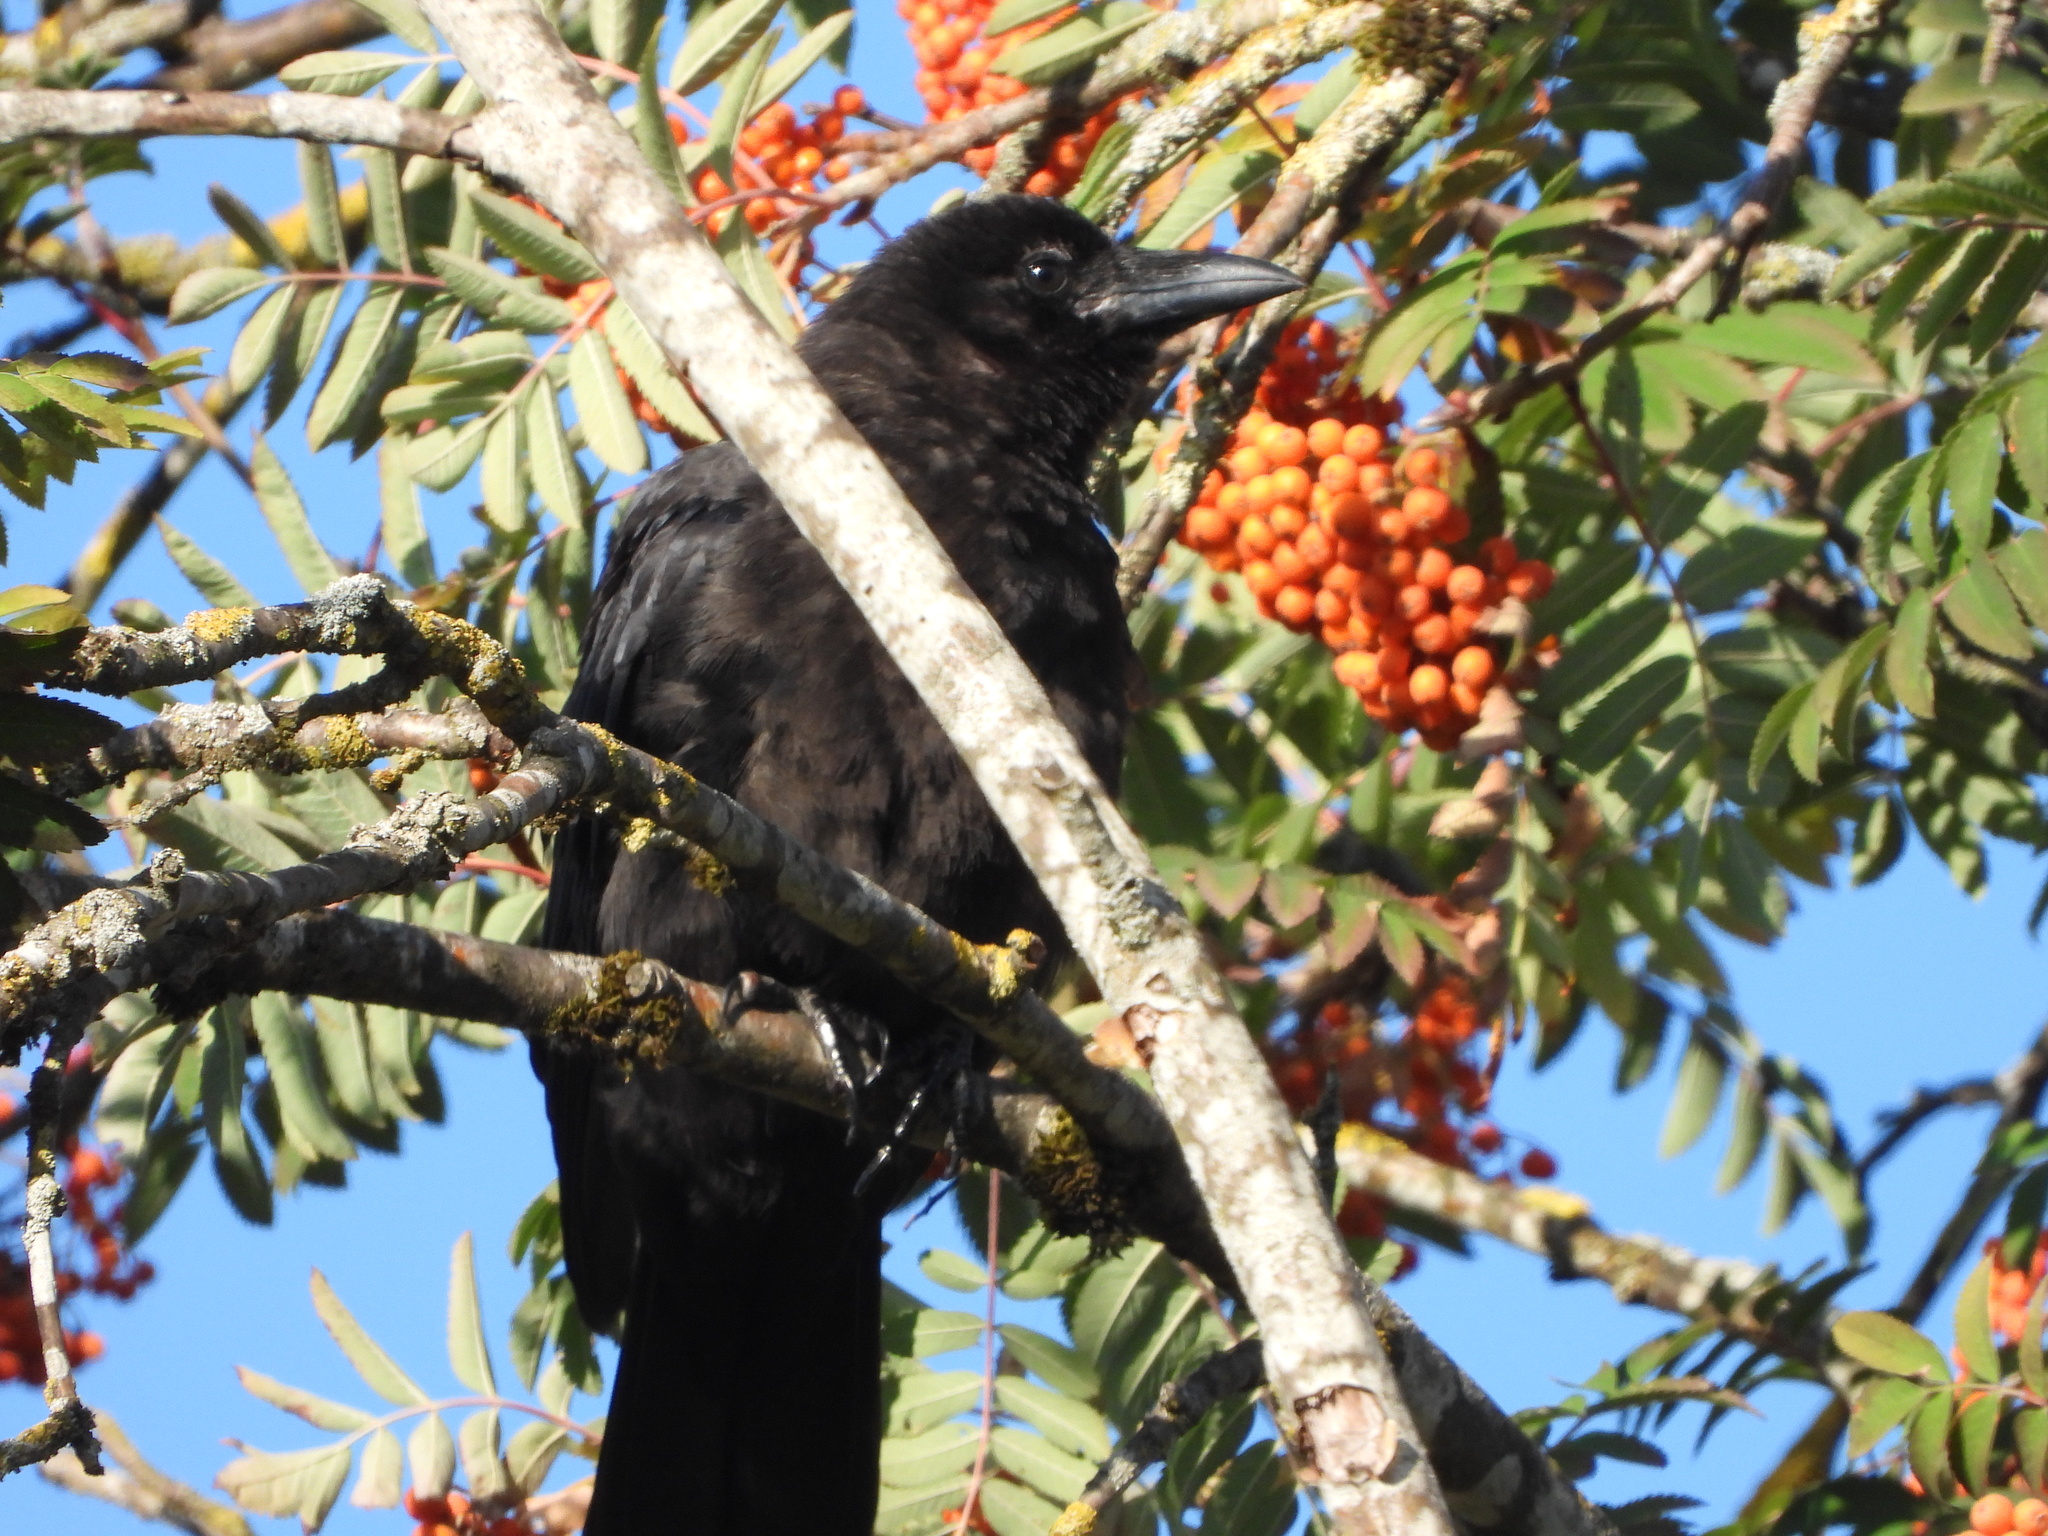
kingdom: Animalia
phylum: Chordata
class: Aves
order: Passeriformes
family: Corvidae
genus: Corvus
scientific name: Corvus brachyrhynchos
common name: American crow
